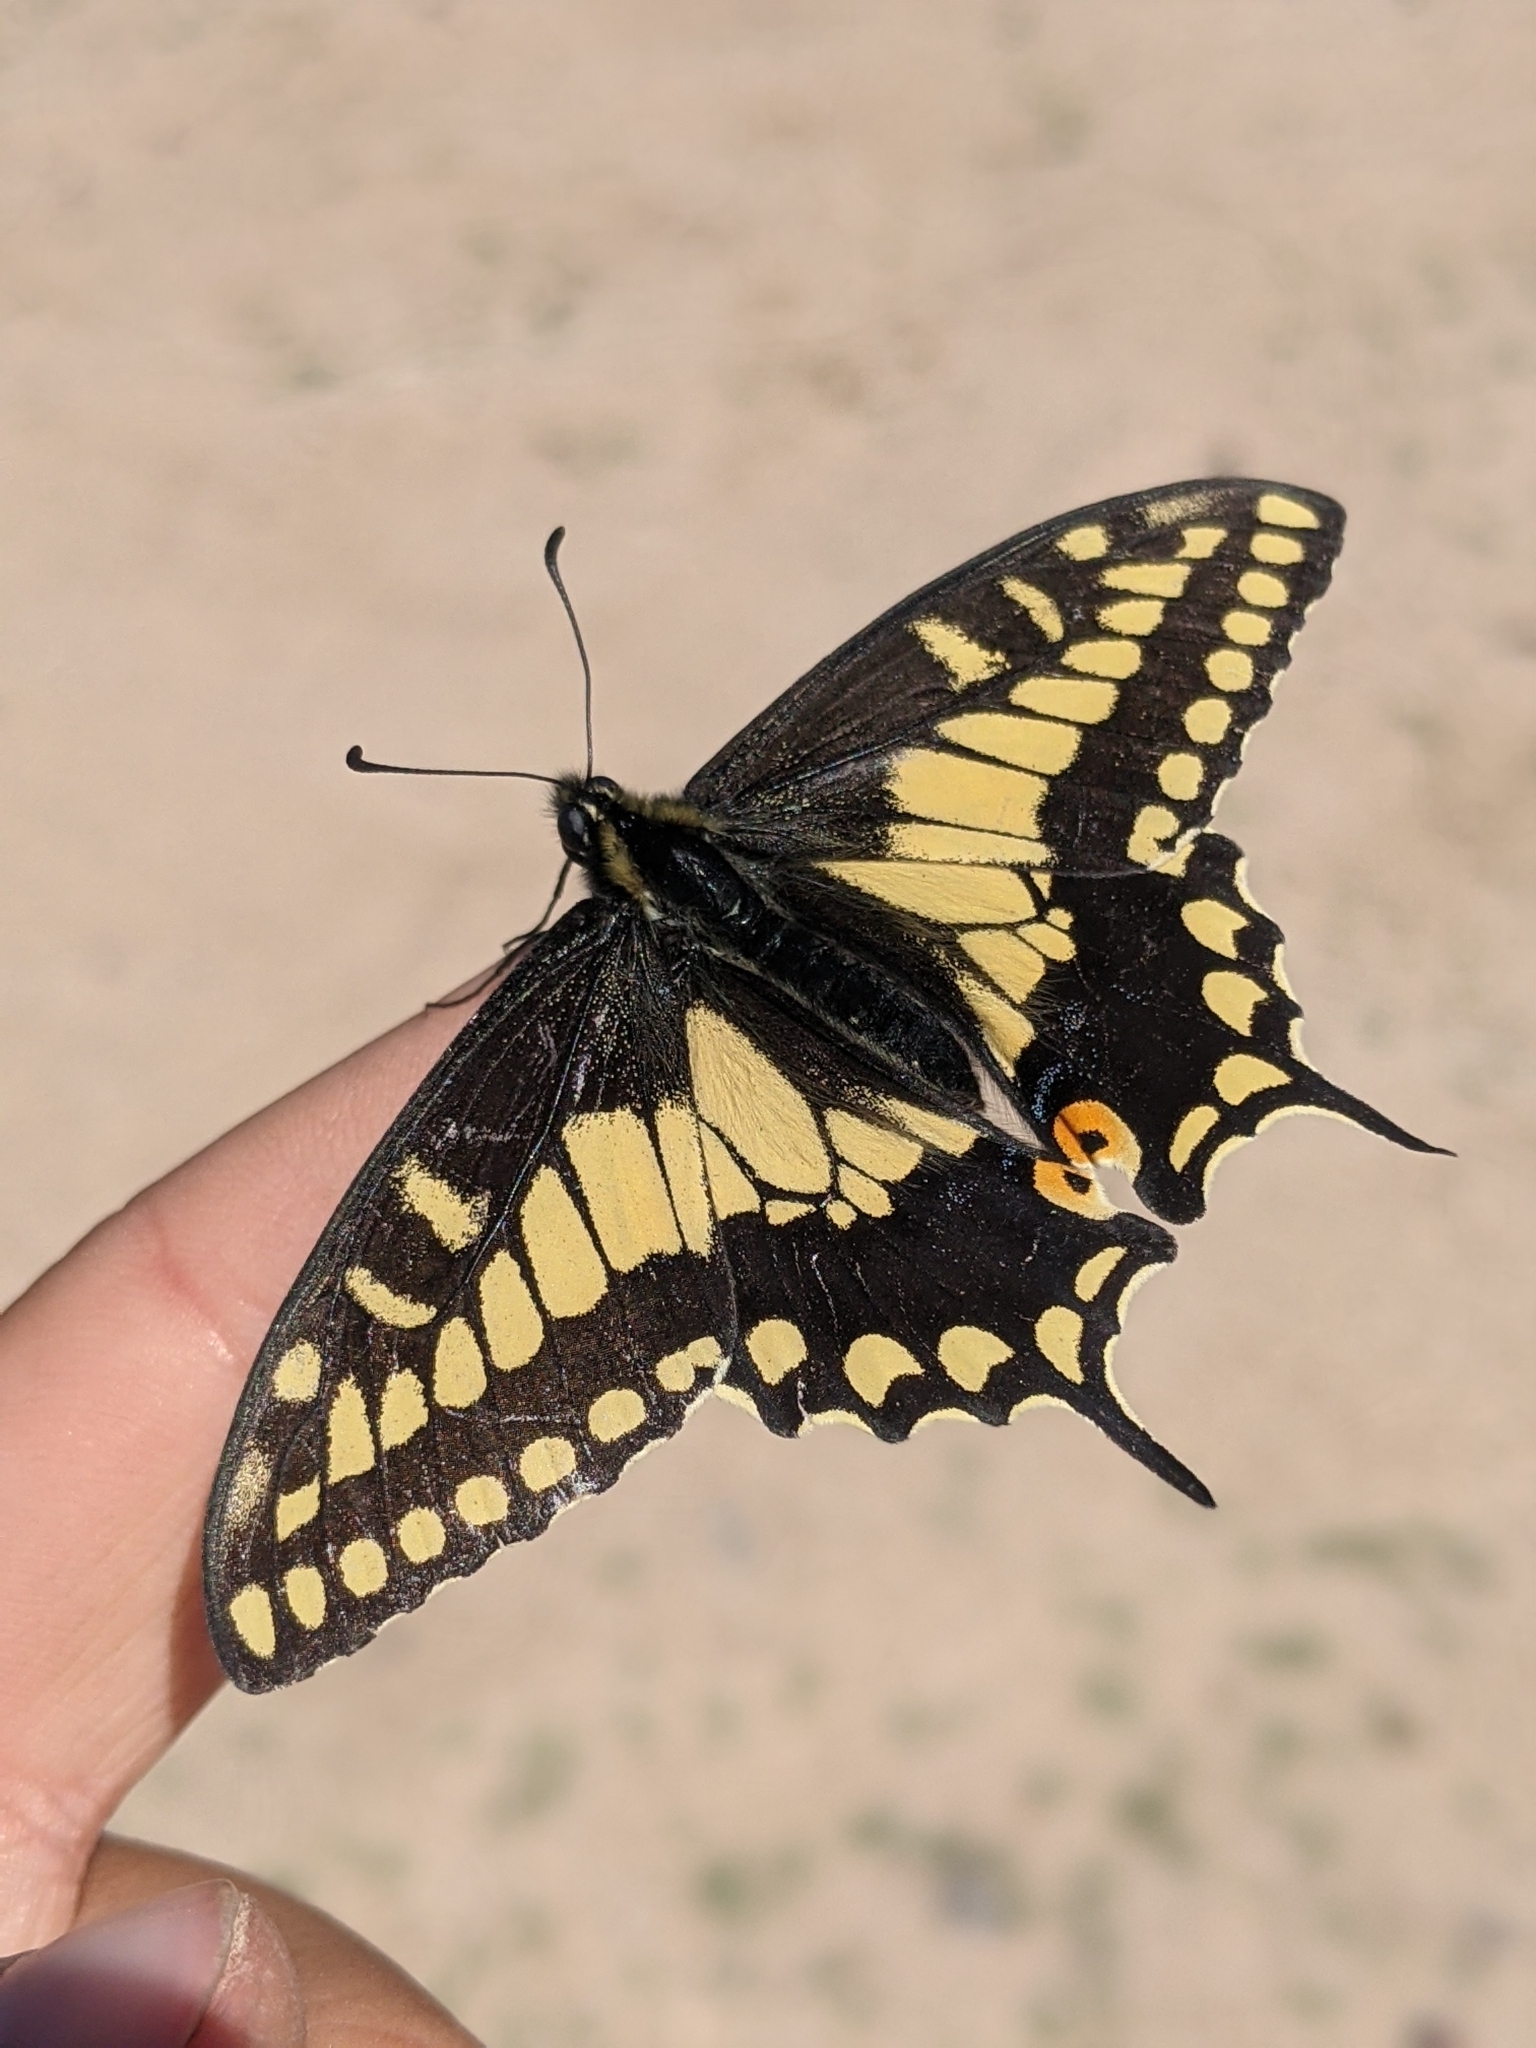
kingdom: Animalia
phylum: Arthropoda
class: Insecta
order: Lepidoptera
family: Papilionidae
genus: Papilio
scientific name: Papilio polyxenes
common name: Black swallowtail
